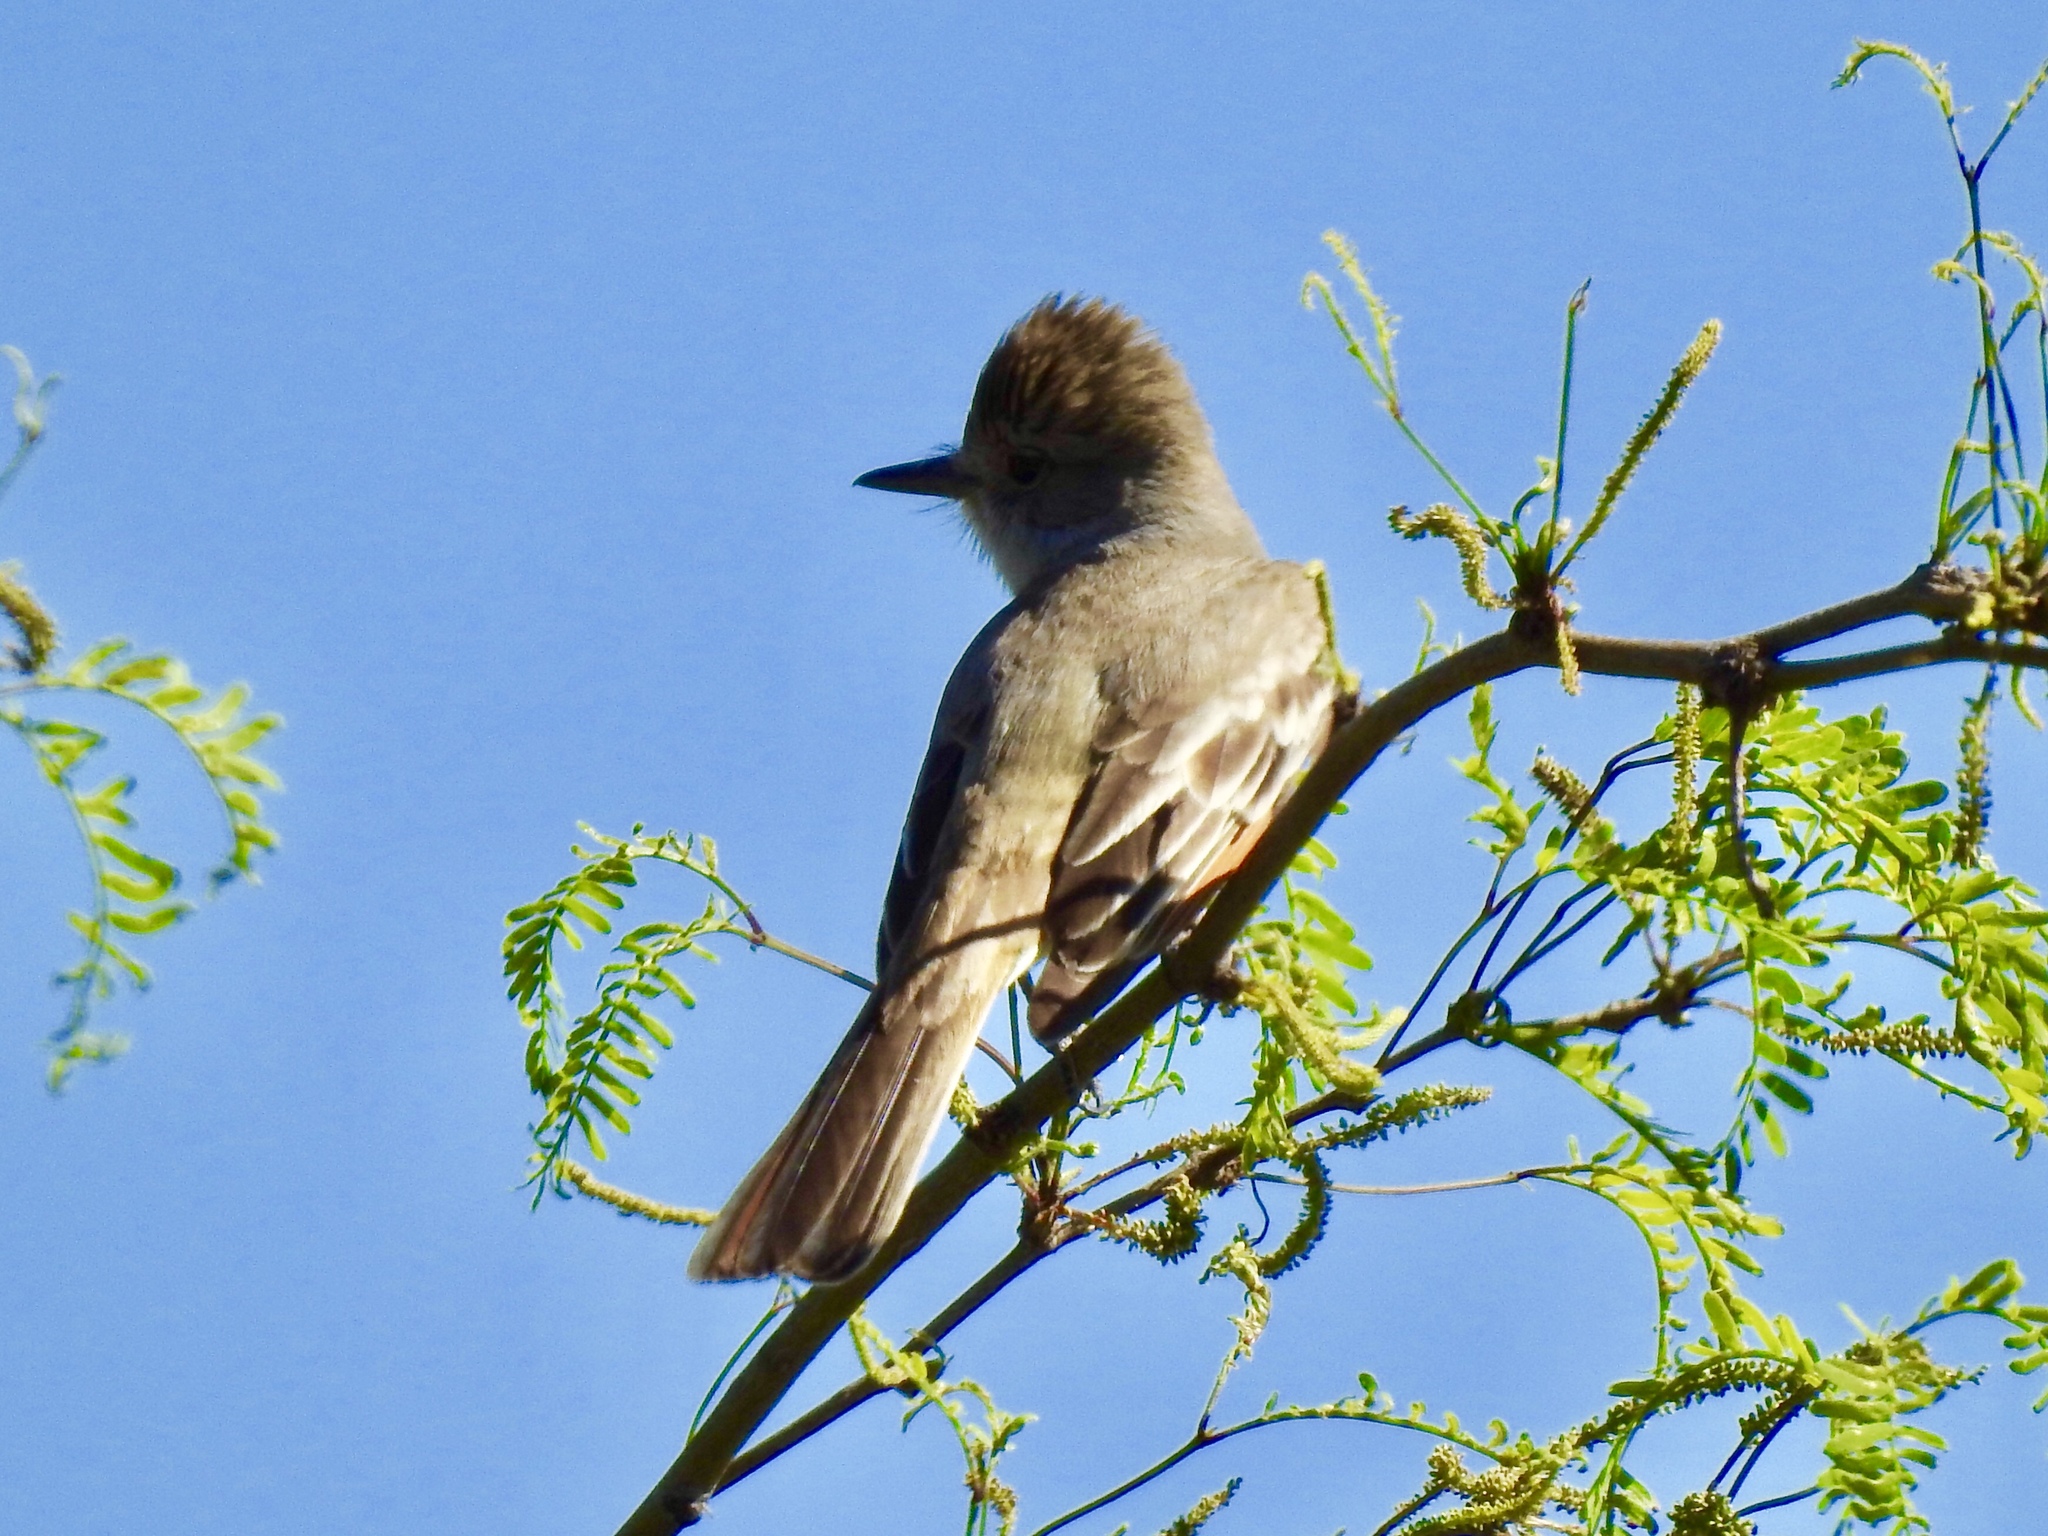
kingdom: Animalia
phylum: Chordata
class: Aves
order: Passeriformes
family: Tyrannidae
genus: Myiarchus
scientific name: Myiarchus
